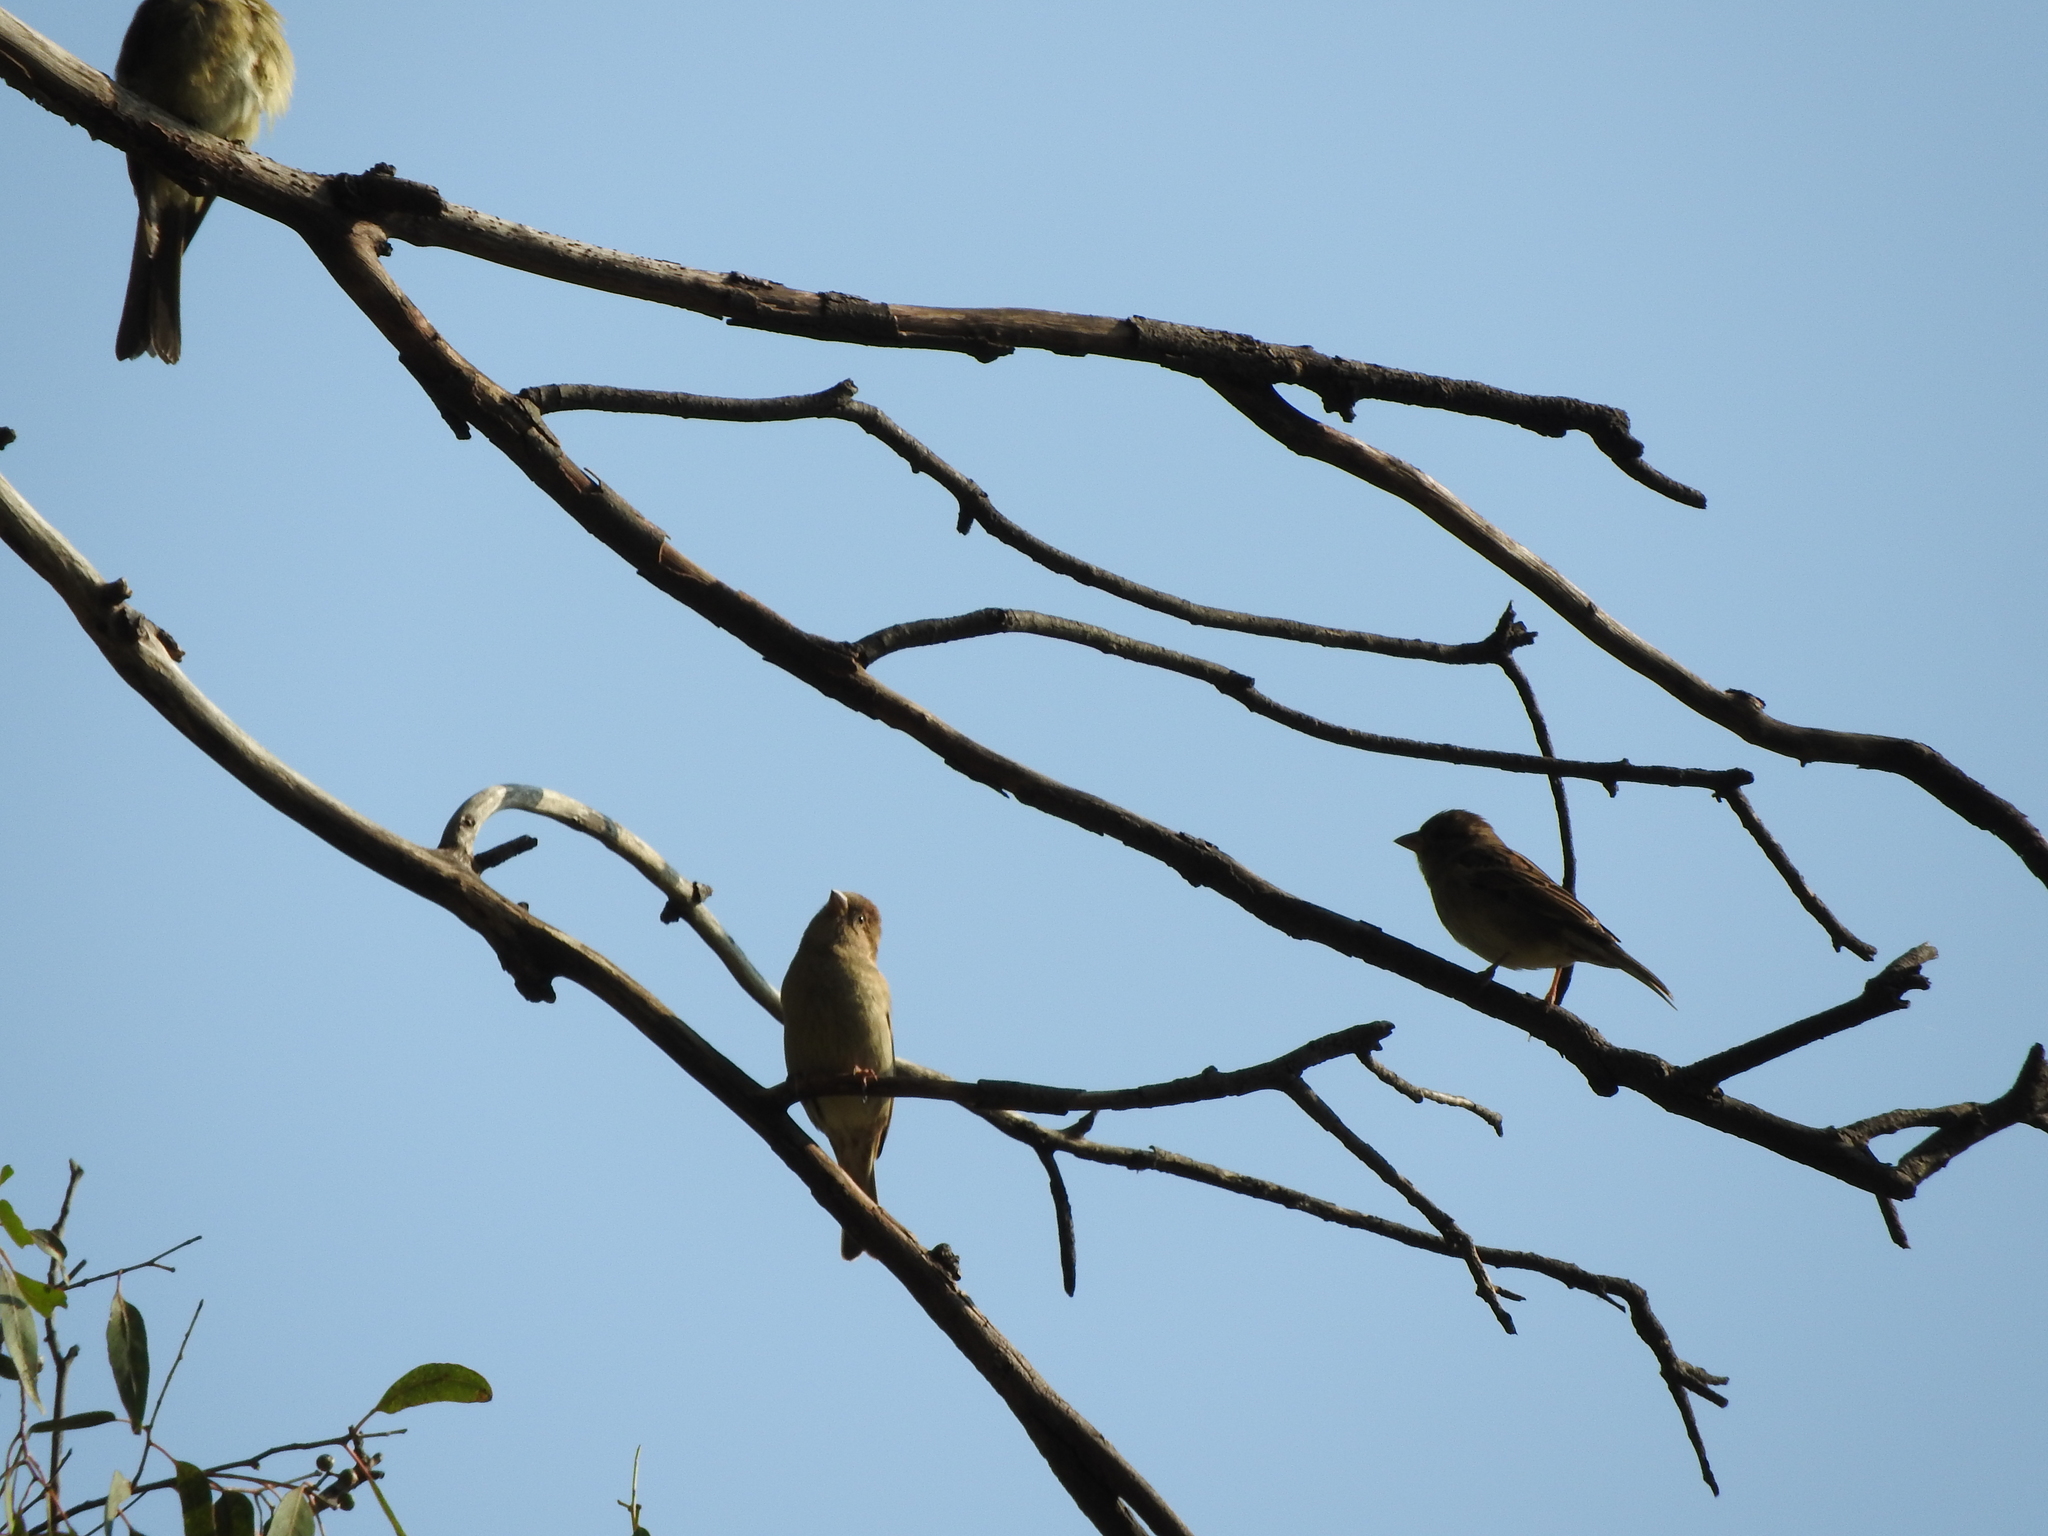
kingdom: Animalia
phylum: Chordata
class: Aves
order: Passeriformes
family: Fringillidae
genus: Haemorhous
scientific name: Haemorhous mexicanus
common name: House finch
